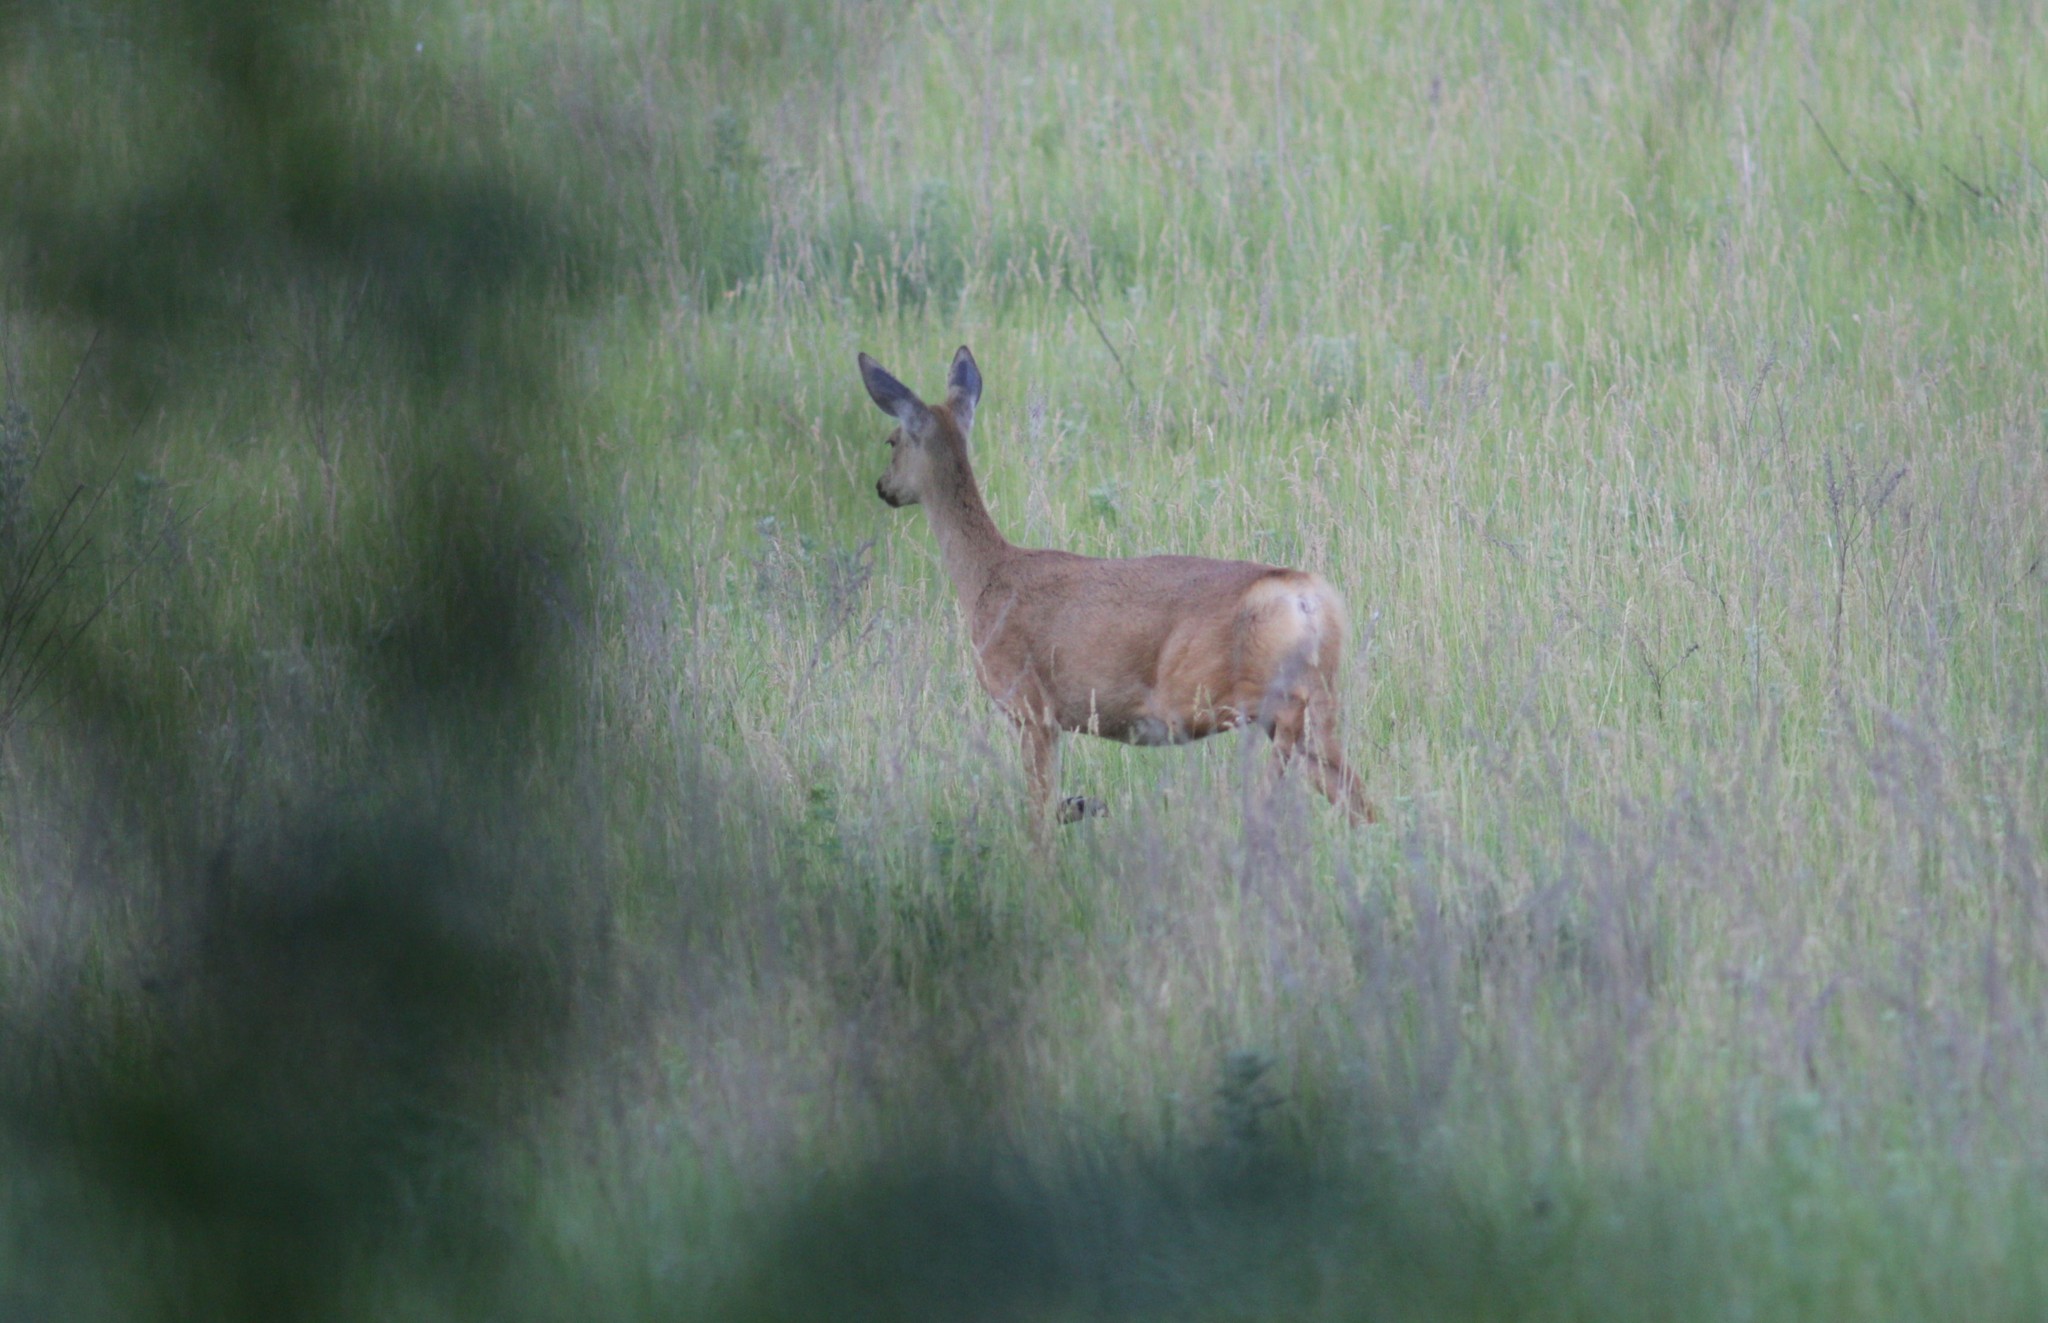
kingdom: Animalia
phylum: Chordata
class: Mammalia
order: Artiodactyla
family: Cervidae
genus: Capreolus
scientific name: Capreolus pygargus
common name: Siberian roe
